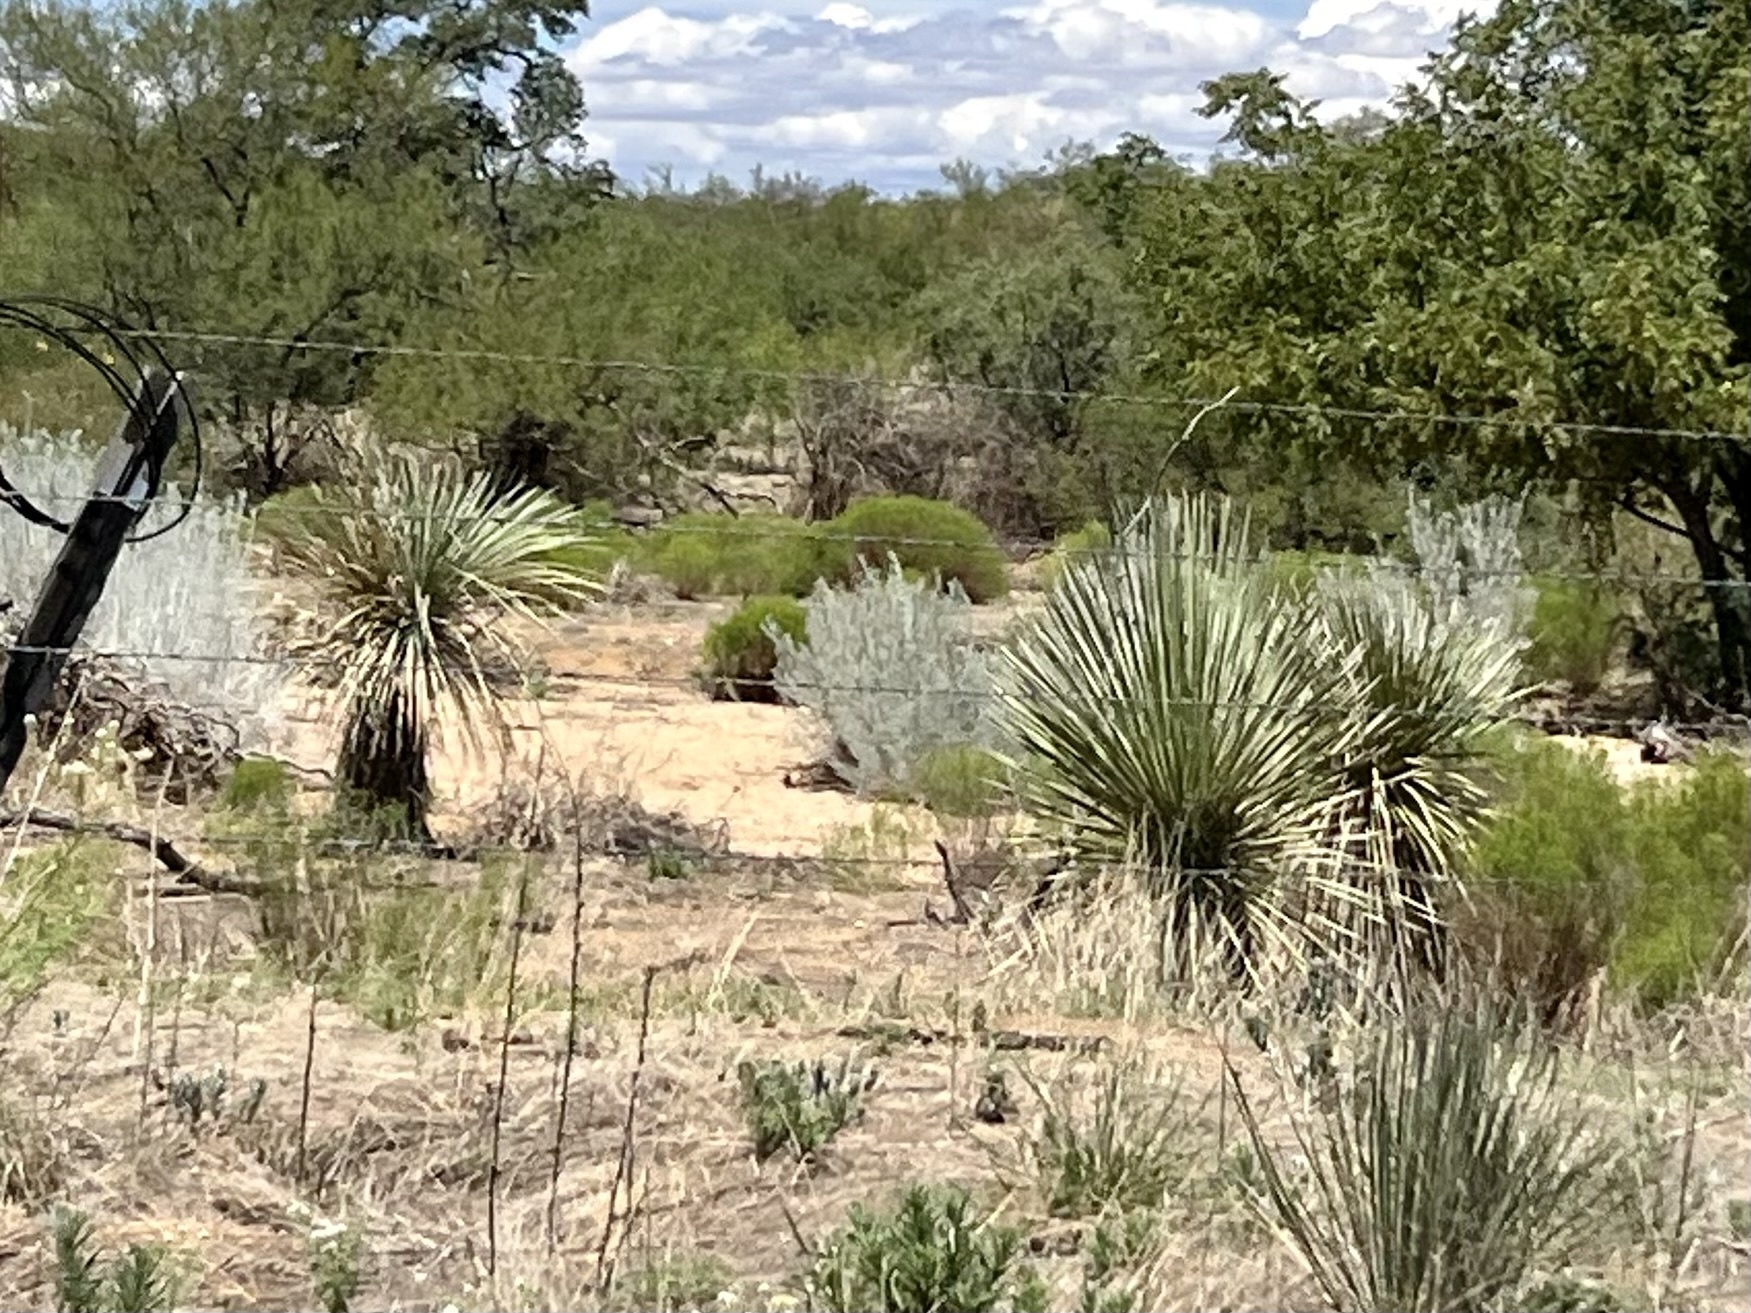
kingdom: Plantae
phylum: Tracheophyta
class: Liliopsida
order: Asparagales
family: Asparagaceae
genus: Yucca
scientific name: Yucca elata
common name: Palmella
